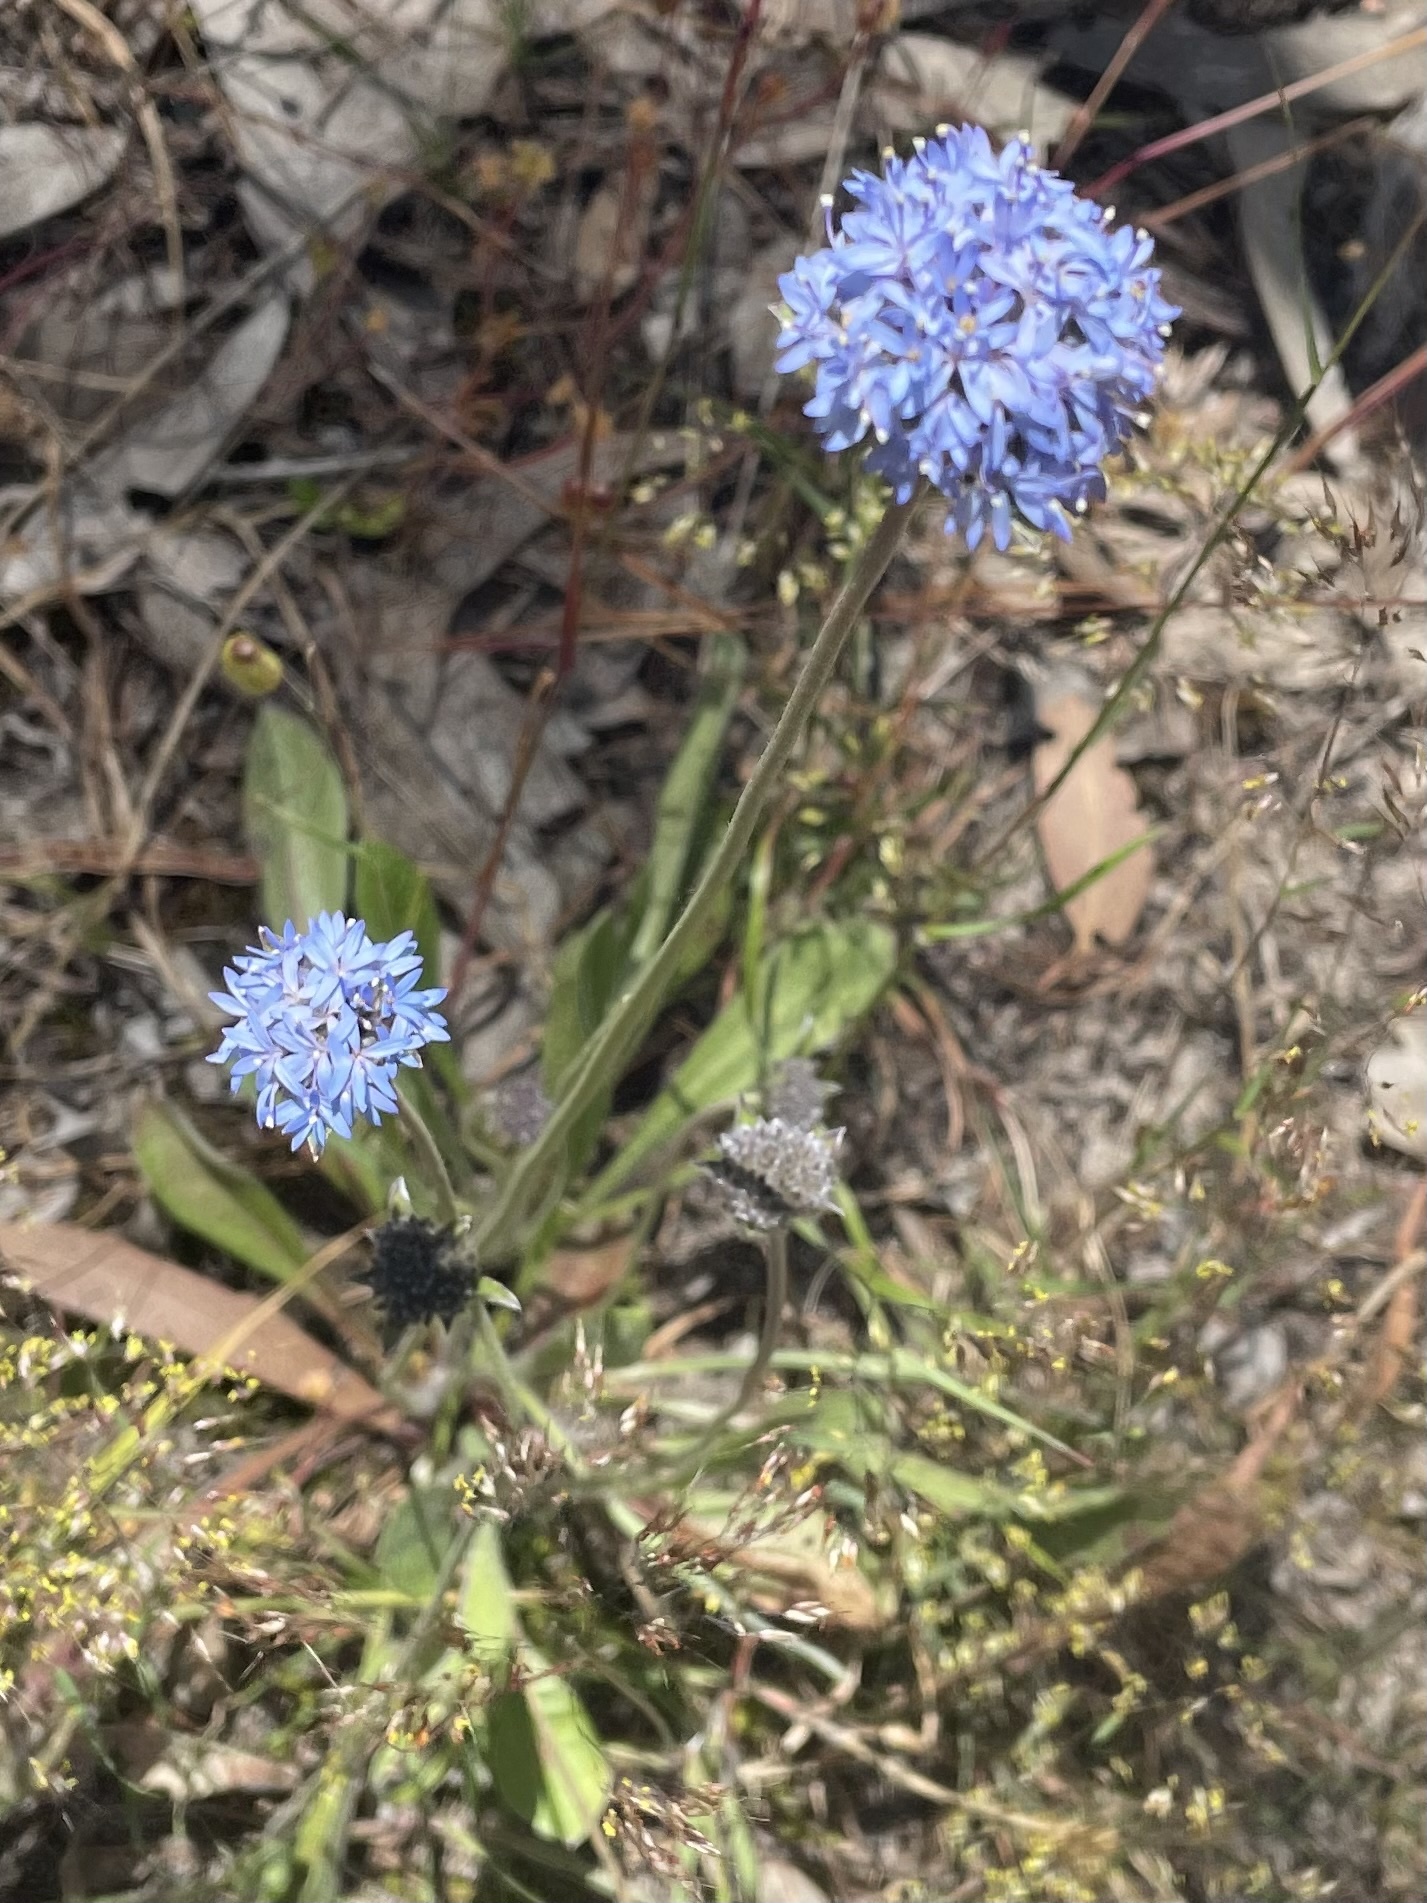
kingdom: Plantae
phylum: Tracheophyta
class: Magnoliopsida
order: Asterales
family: Goodeniaceae
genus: Brunonia
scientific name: Brunonia australis
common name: Blue pincushion
